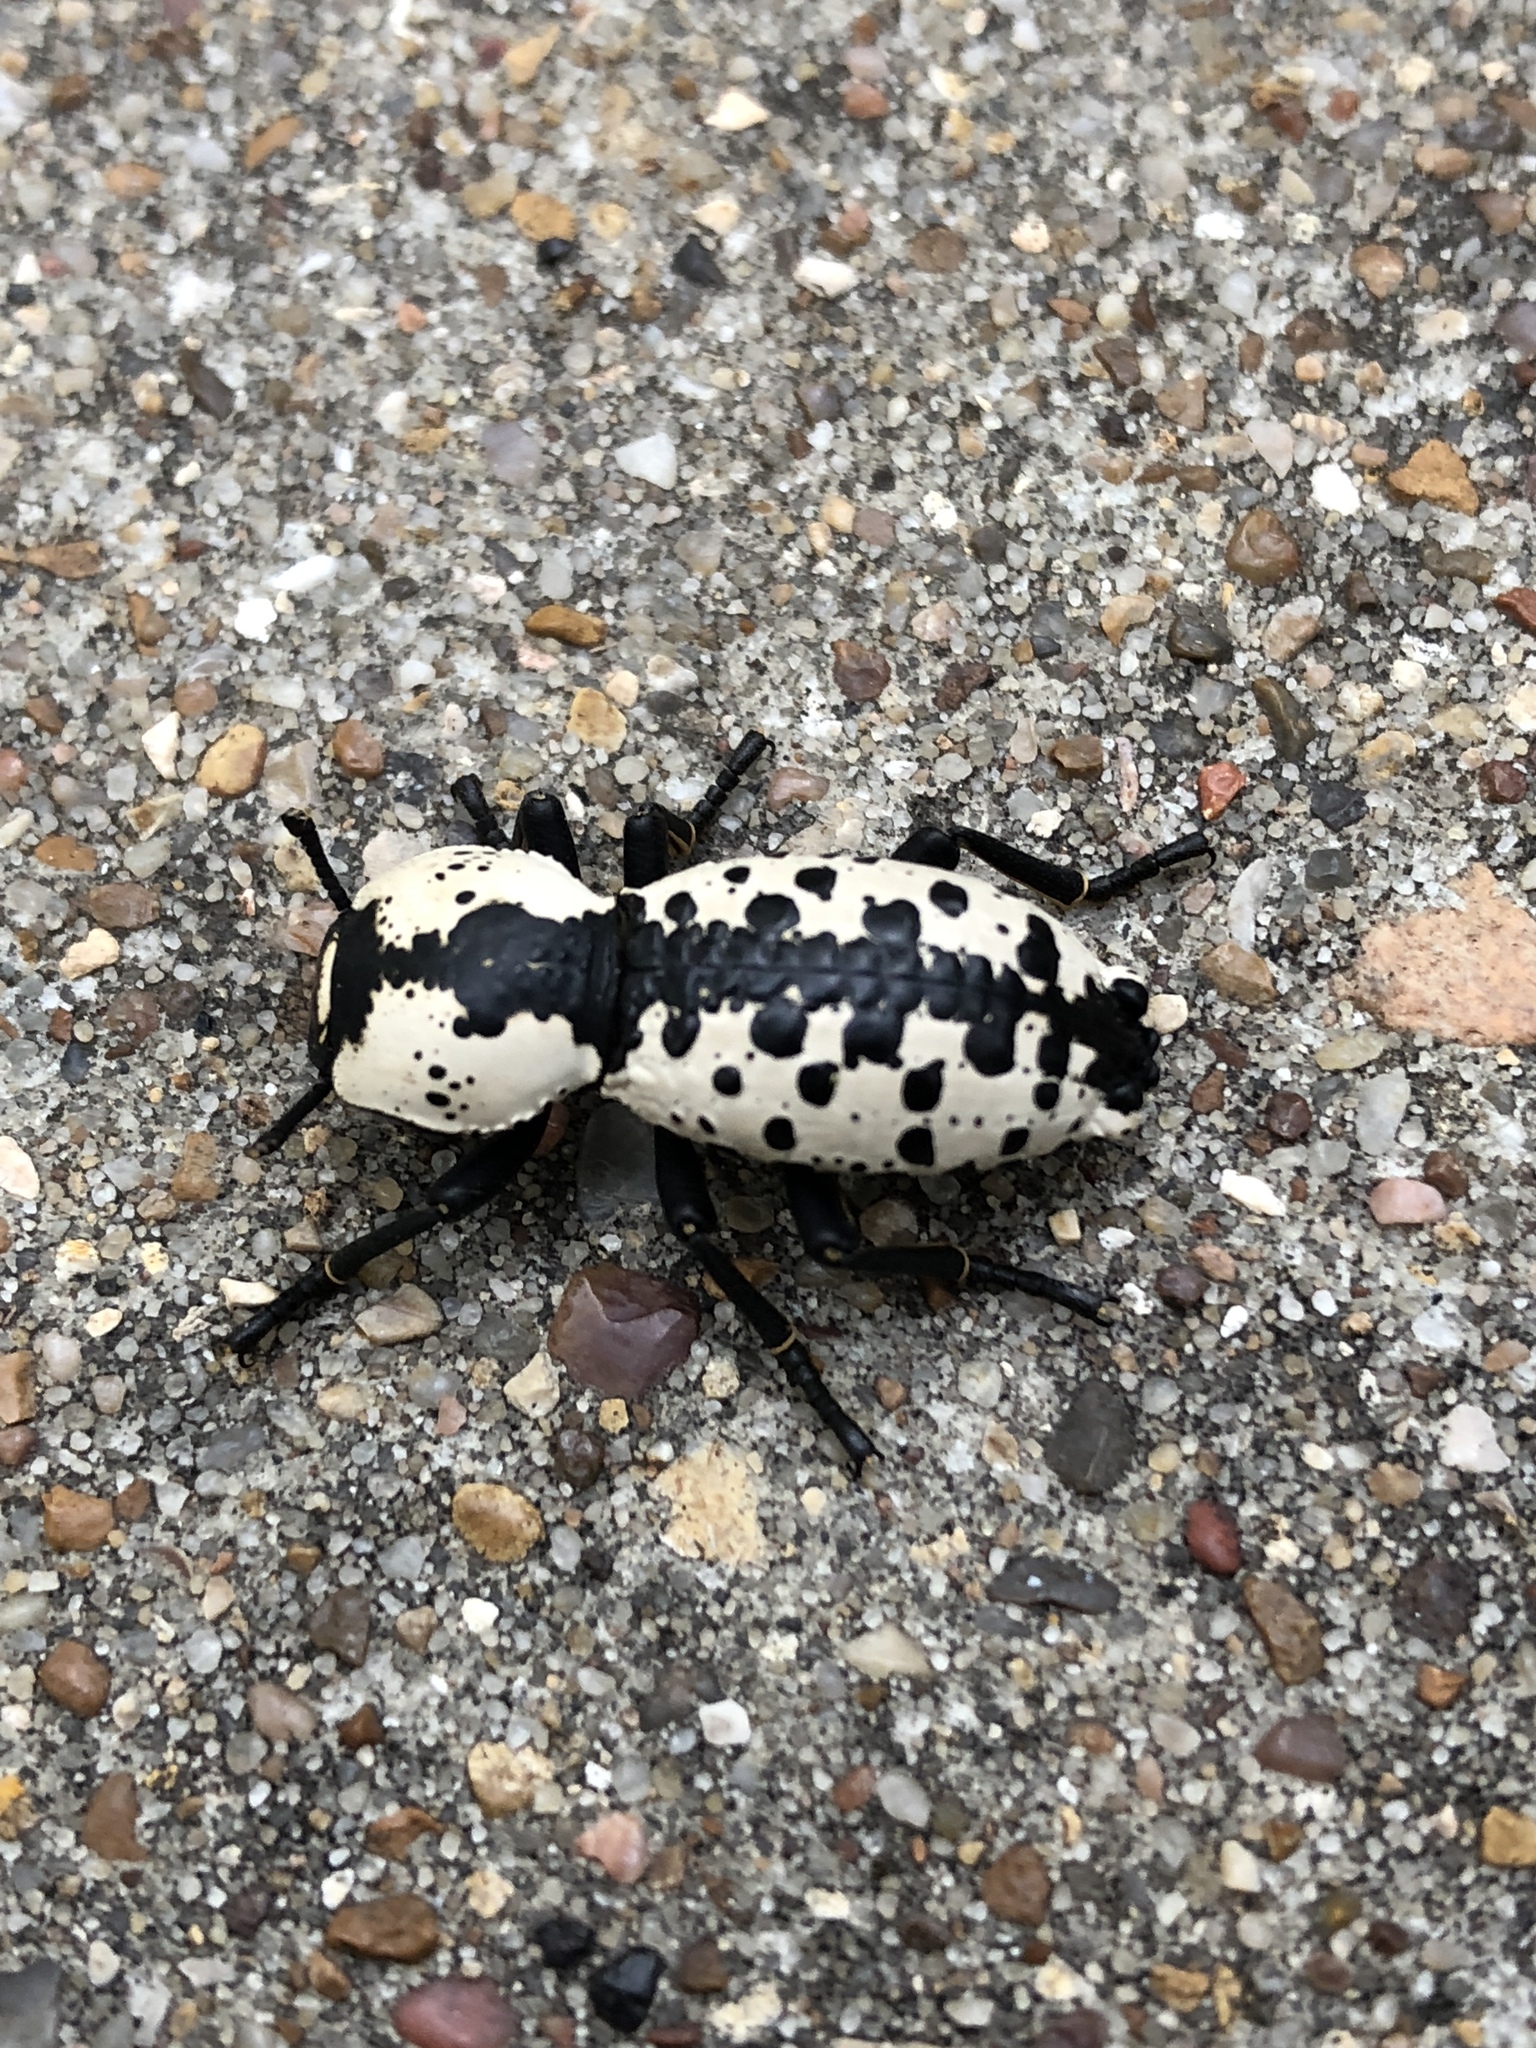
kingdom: Animalia
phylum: Arthropoda
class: Insecta
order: Coleoptera
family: Zopheridae
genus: Zopherus
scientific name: Zopherus nodulosus
